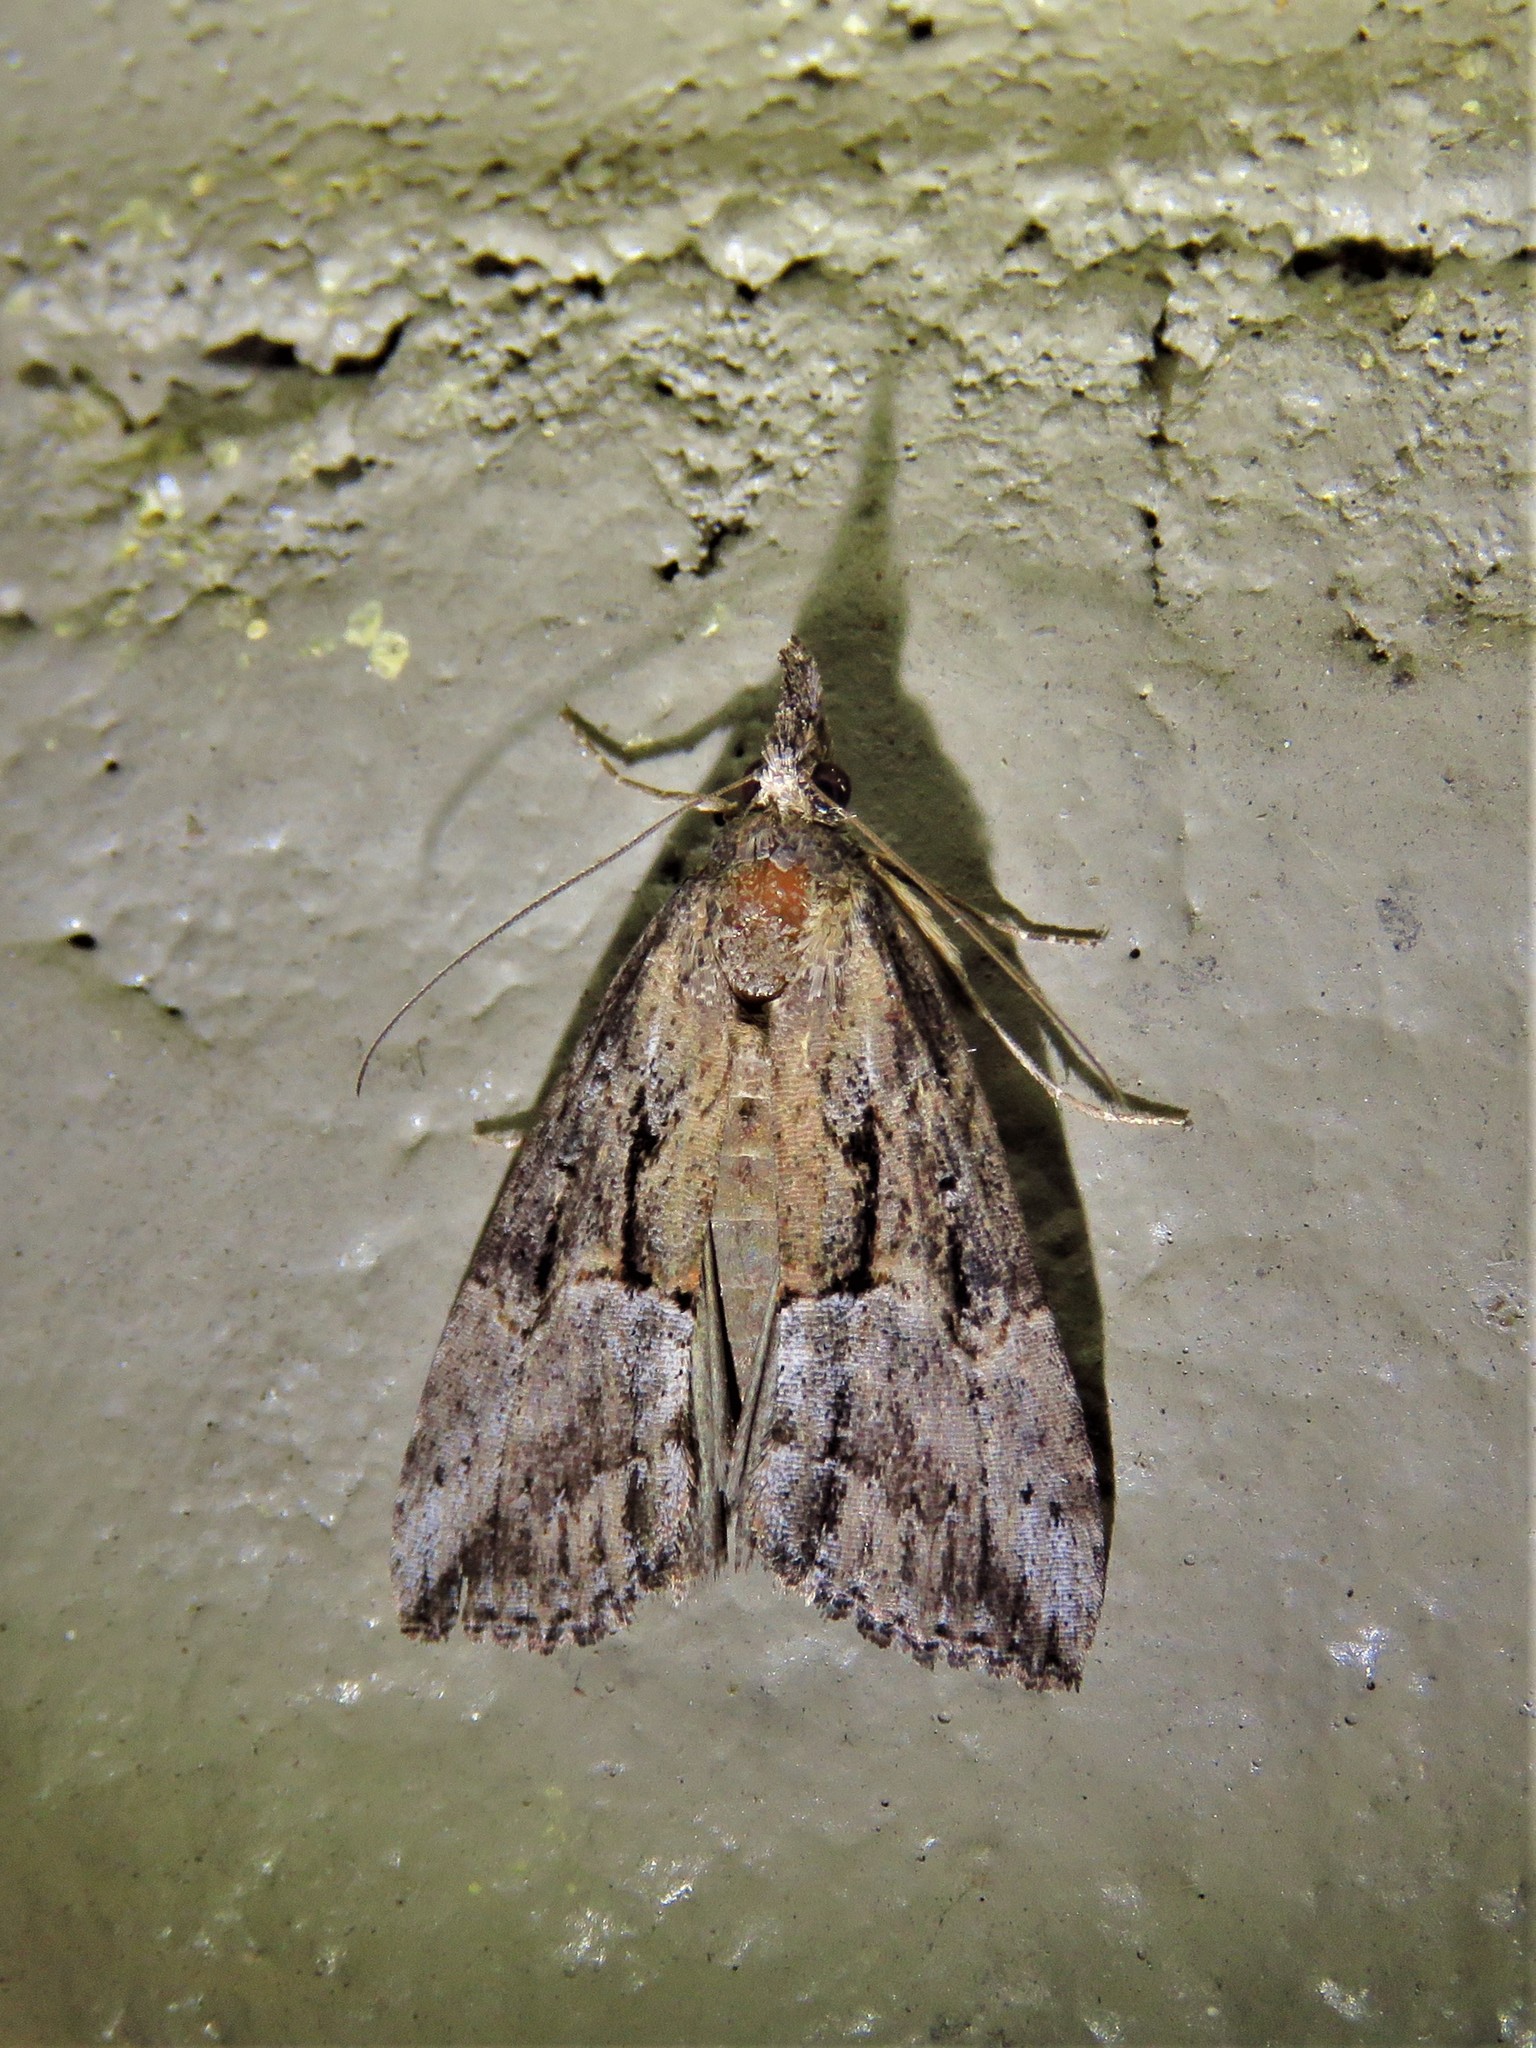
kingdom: Animalia
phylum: Arthropoda
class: Insecta
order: Lepidoptera
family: Erebidae
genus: Hypena
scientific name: Hypena scabra
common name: Green cloverworm
